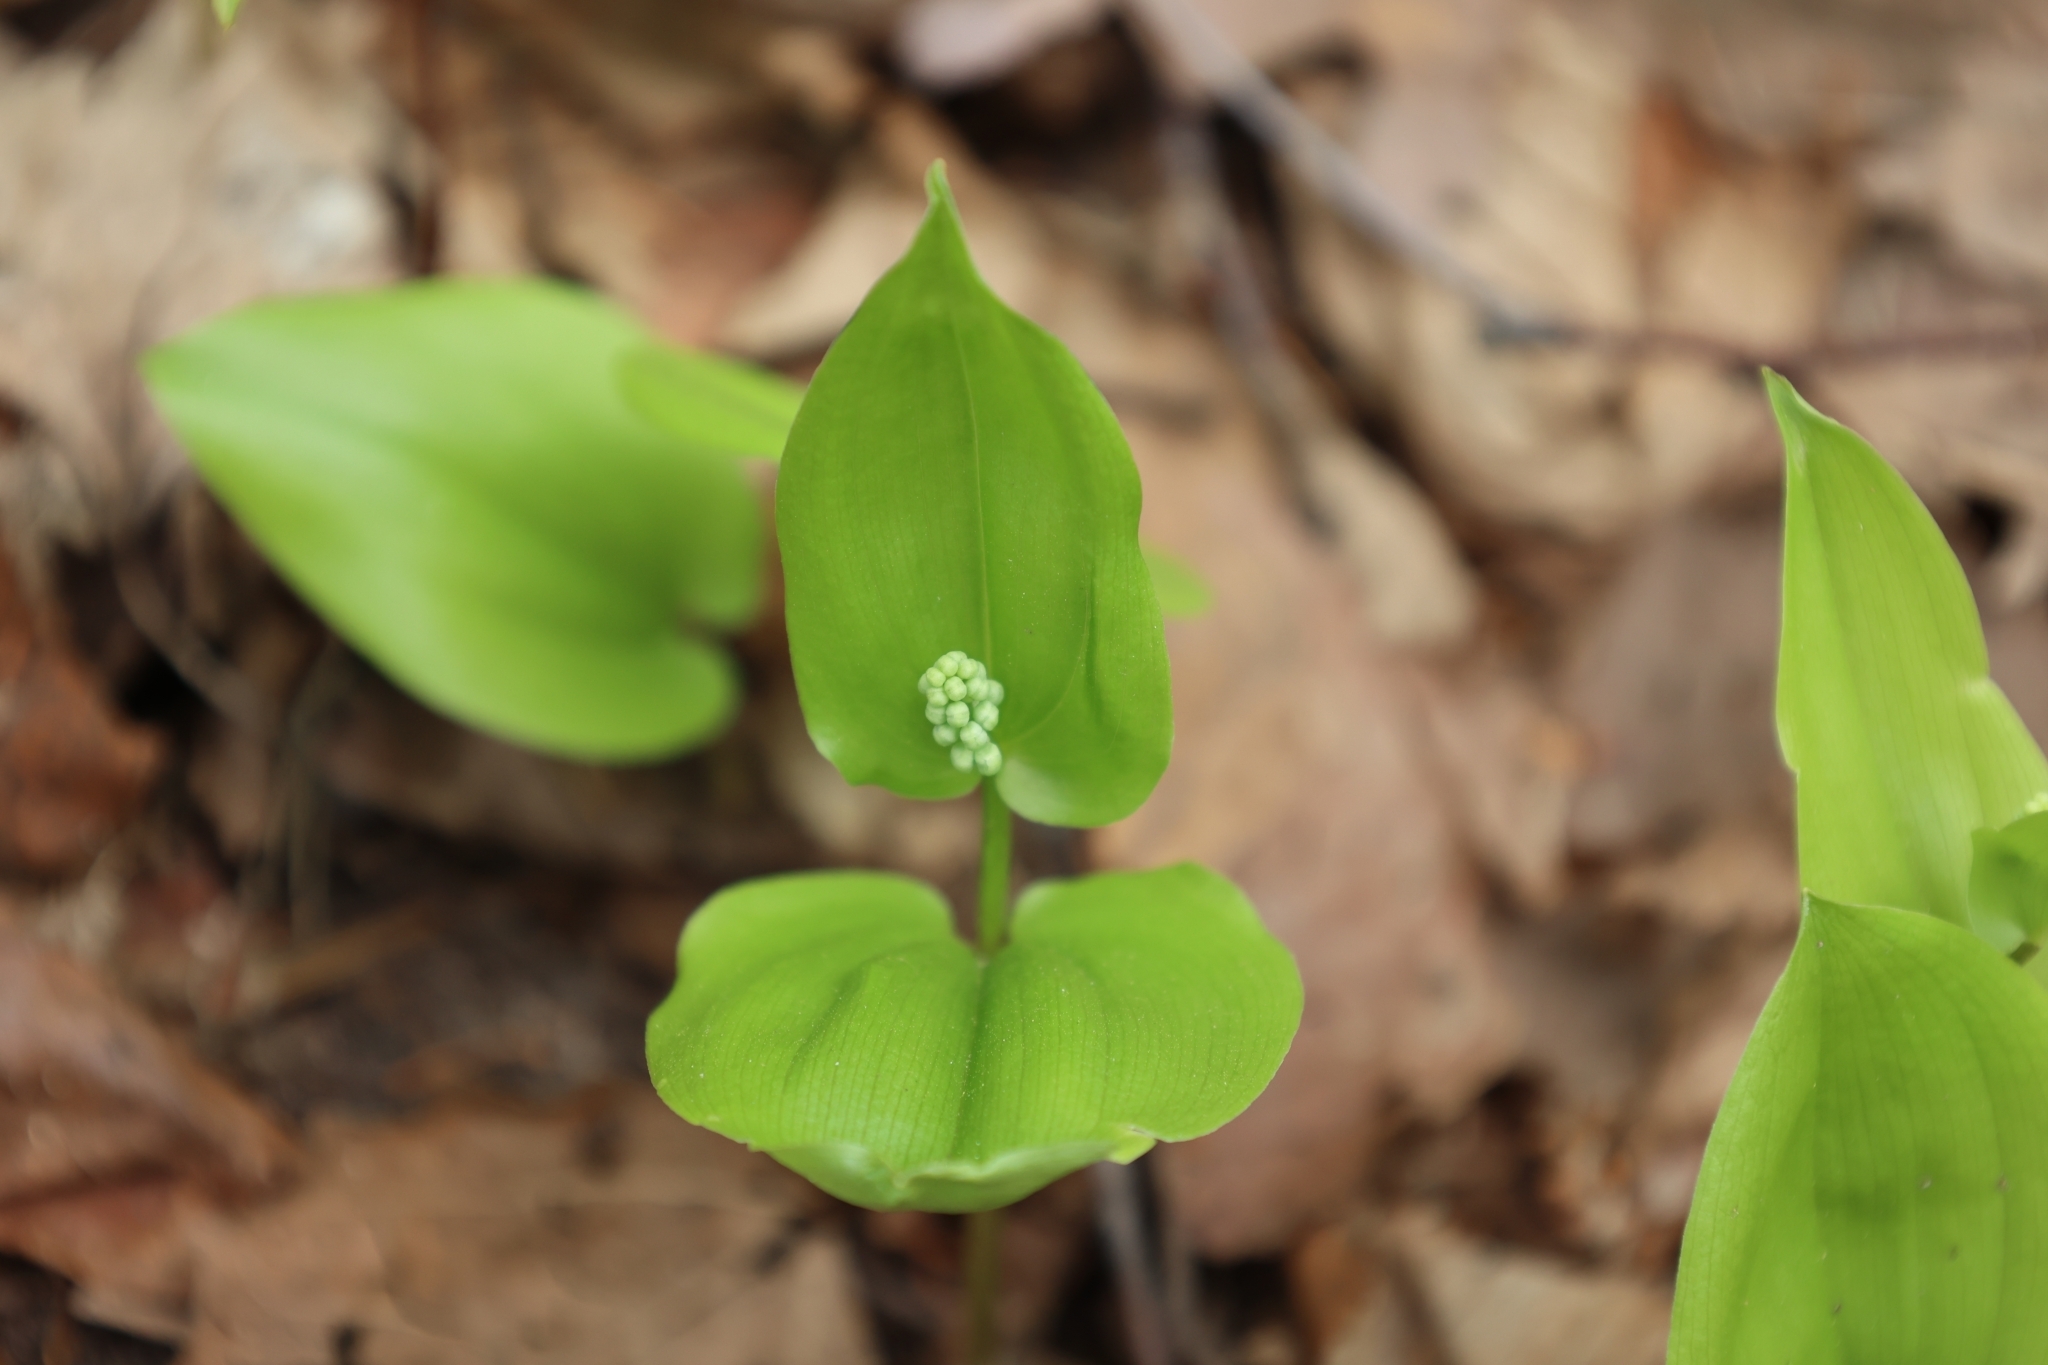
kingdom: Plantae
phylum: Tracheophyta
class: Liliopsida
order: Asparagales
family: Asparagaceae
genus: Maianthemum
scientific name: Maianthemum canadense
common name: False lily-of-the-valley
